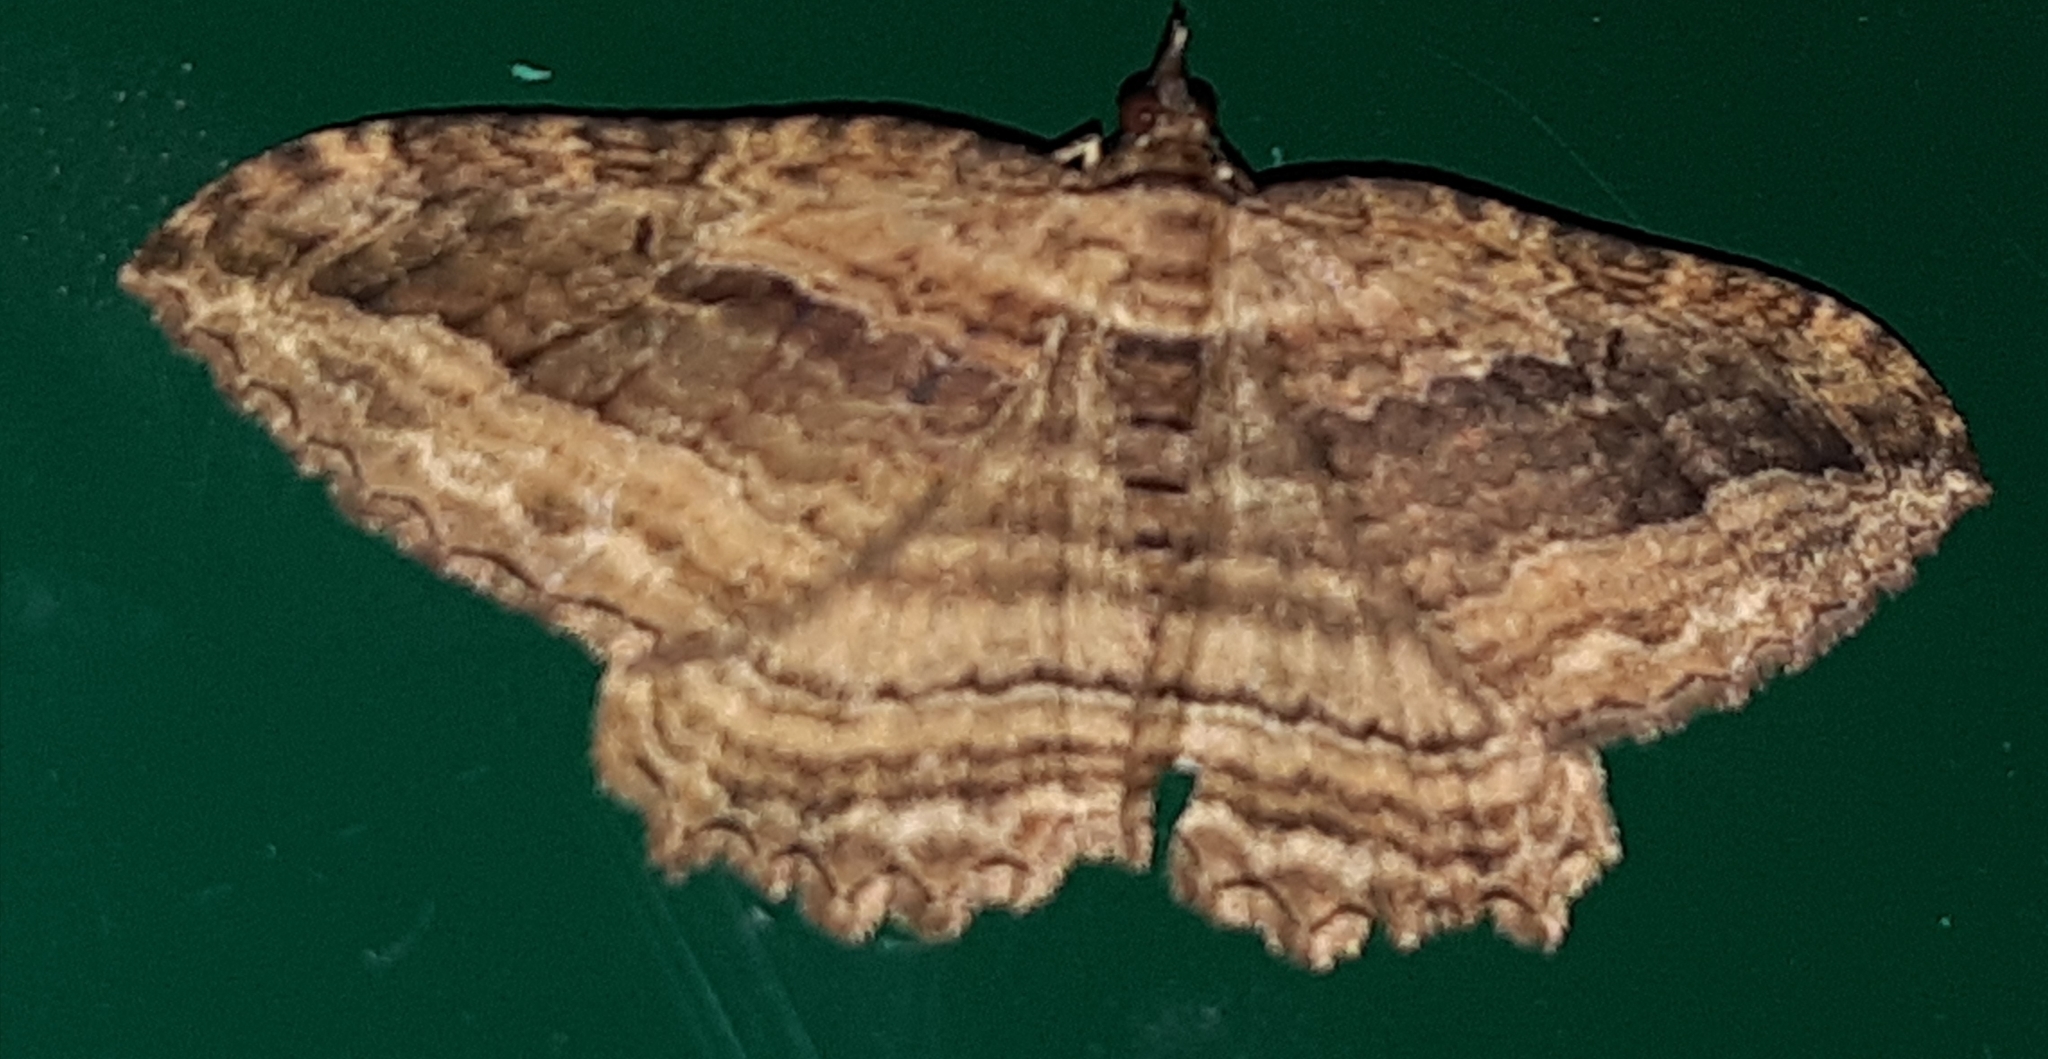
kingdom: Animalia
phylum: Arthropoda
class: Insecta
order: Lepidoptera
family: Geometridae
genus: Philereme
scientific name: Philereme transversata
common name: Dark umber
